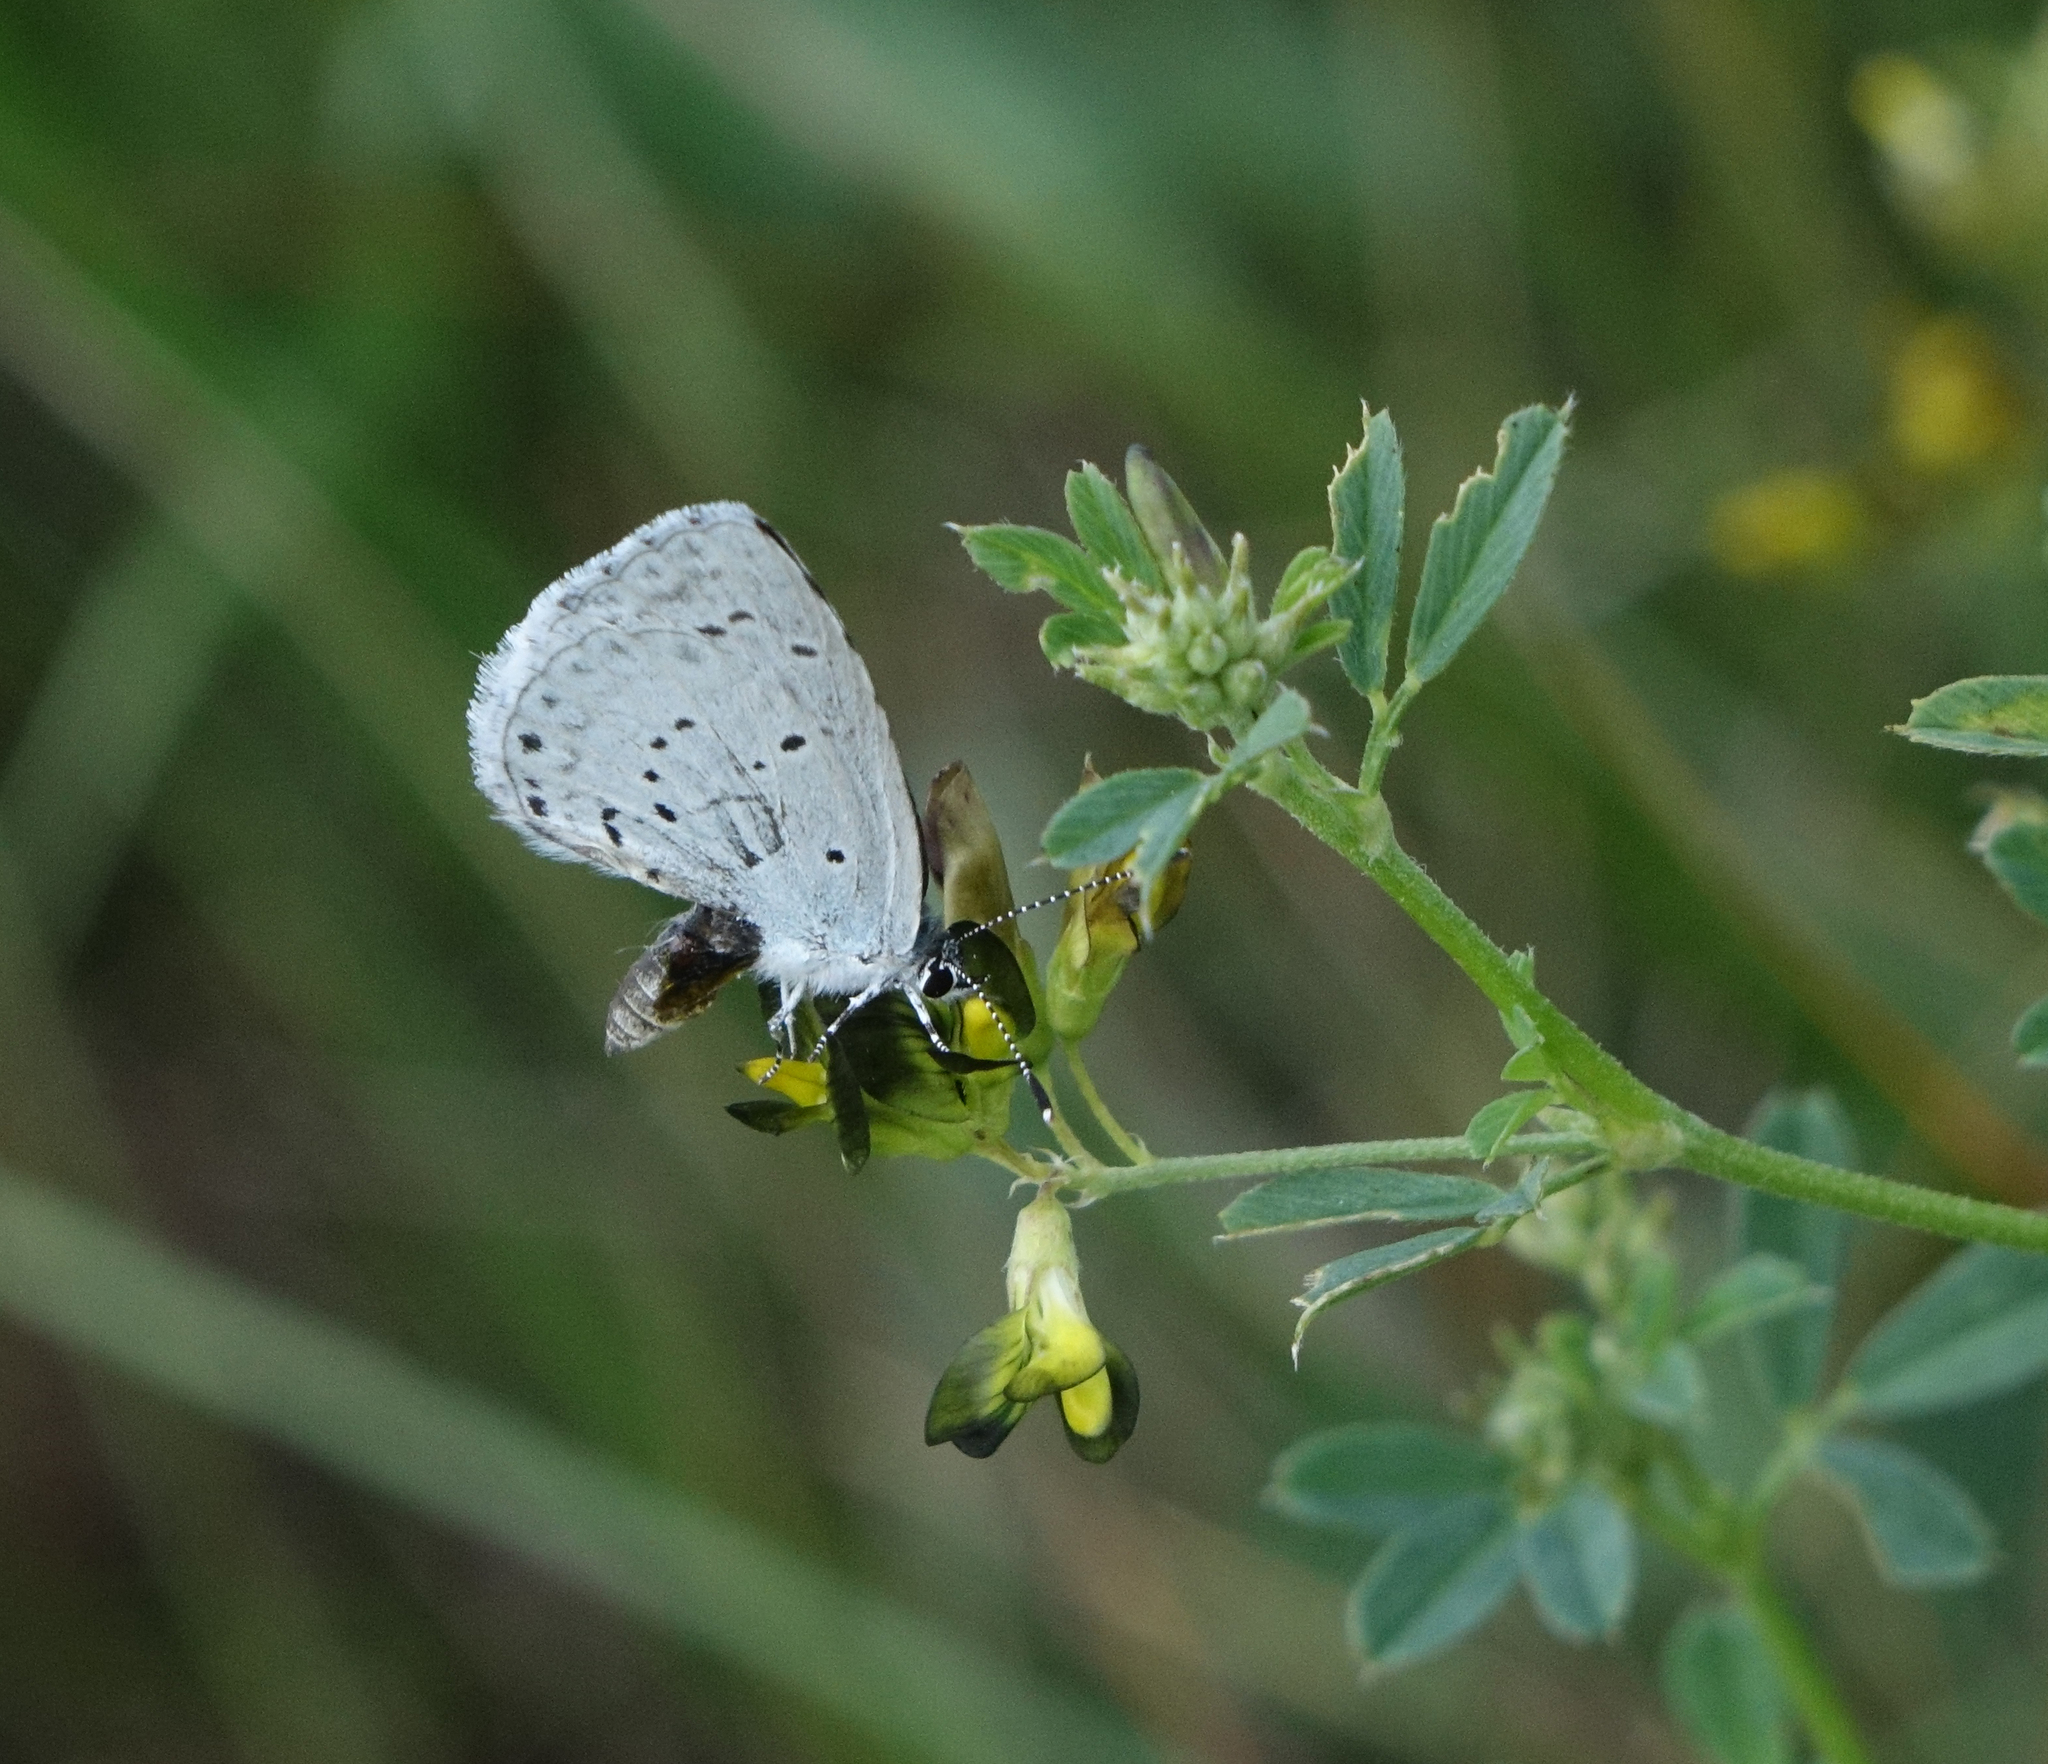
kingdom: Plantae
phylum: Tracheophyta
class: Magnoliopsida
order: Fabales
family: Fabaceae
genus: Medicago
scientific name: Medicago falcata
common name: Sickle medick
